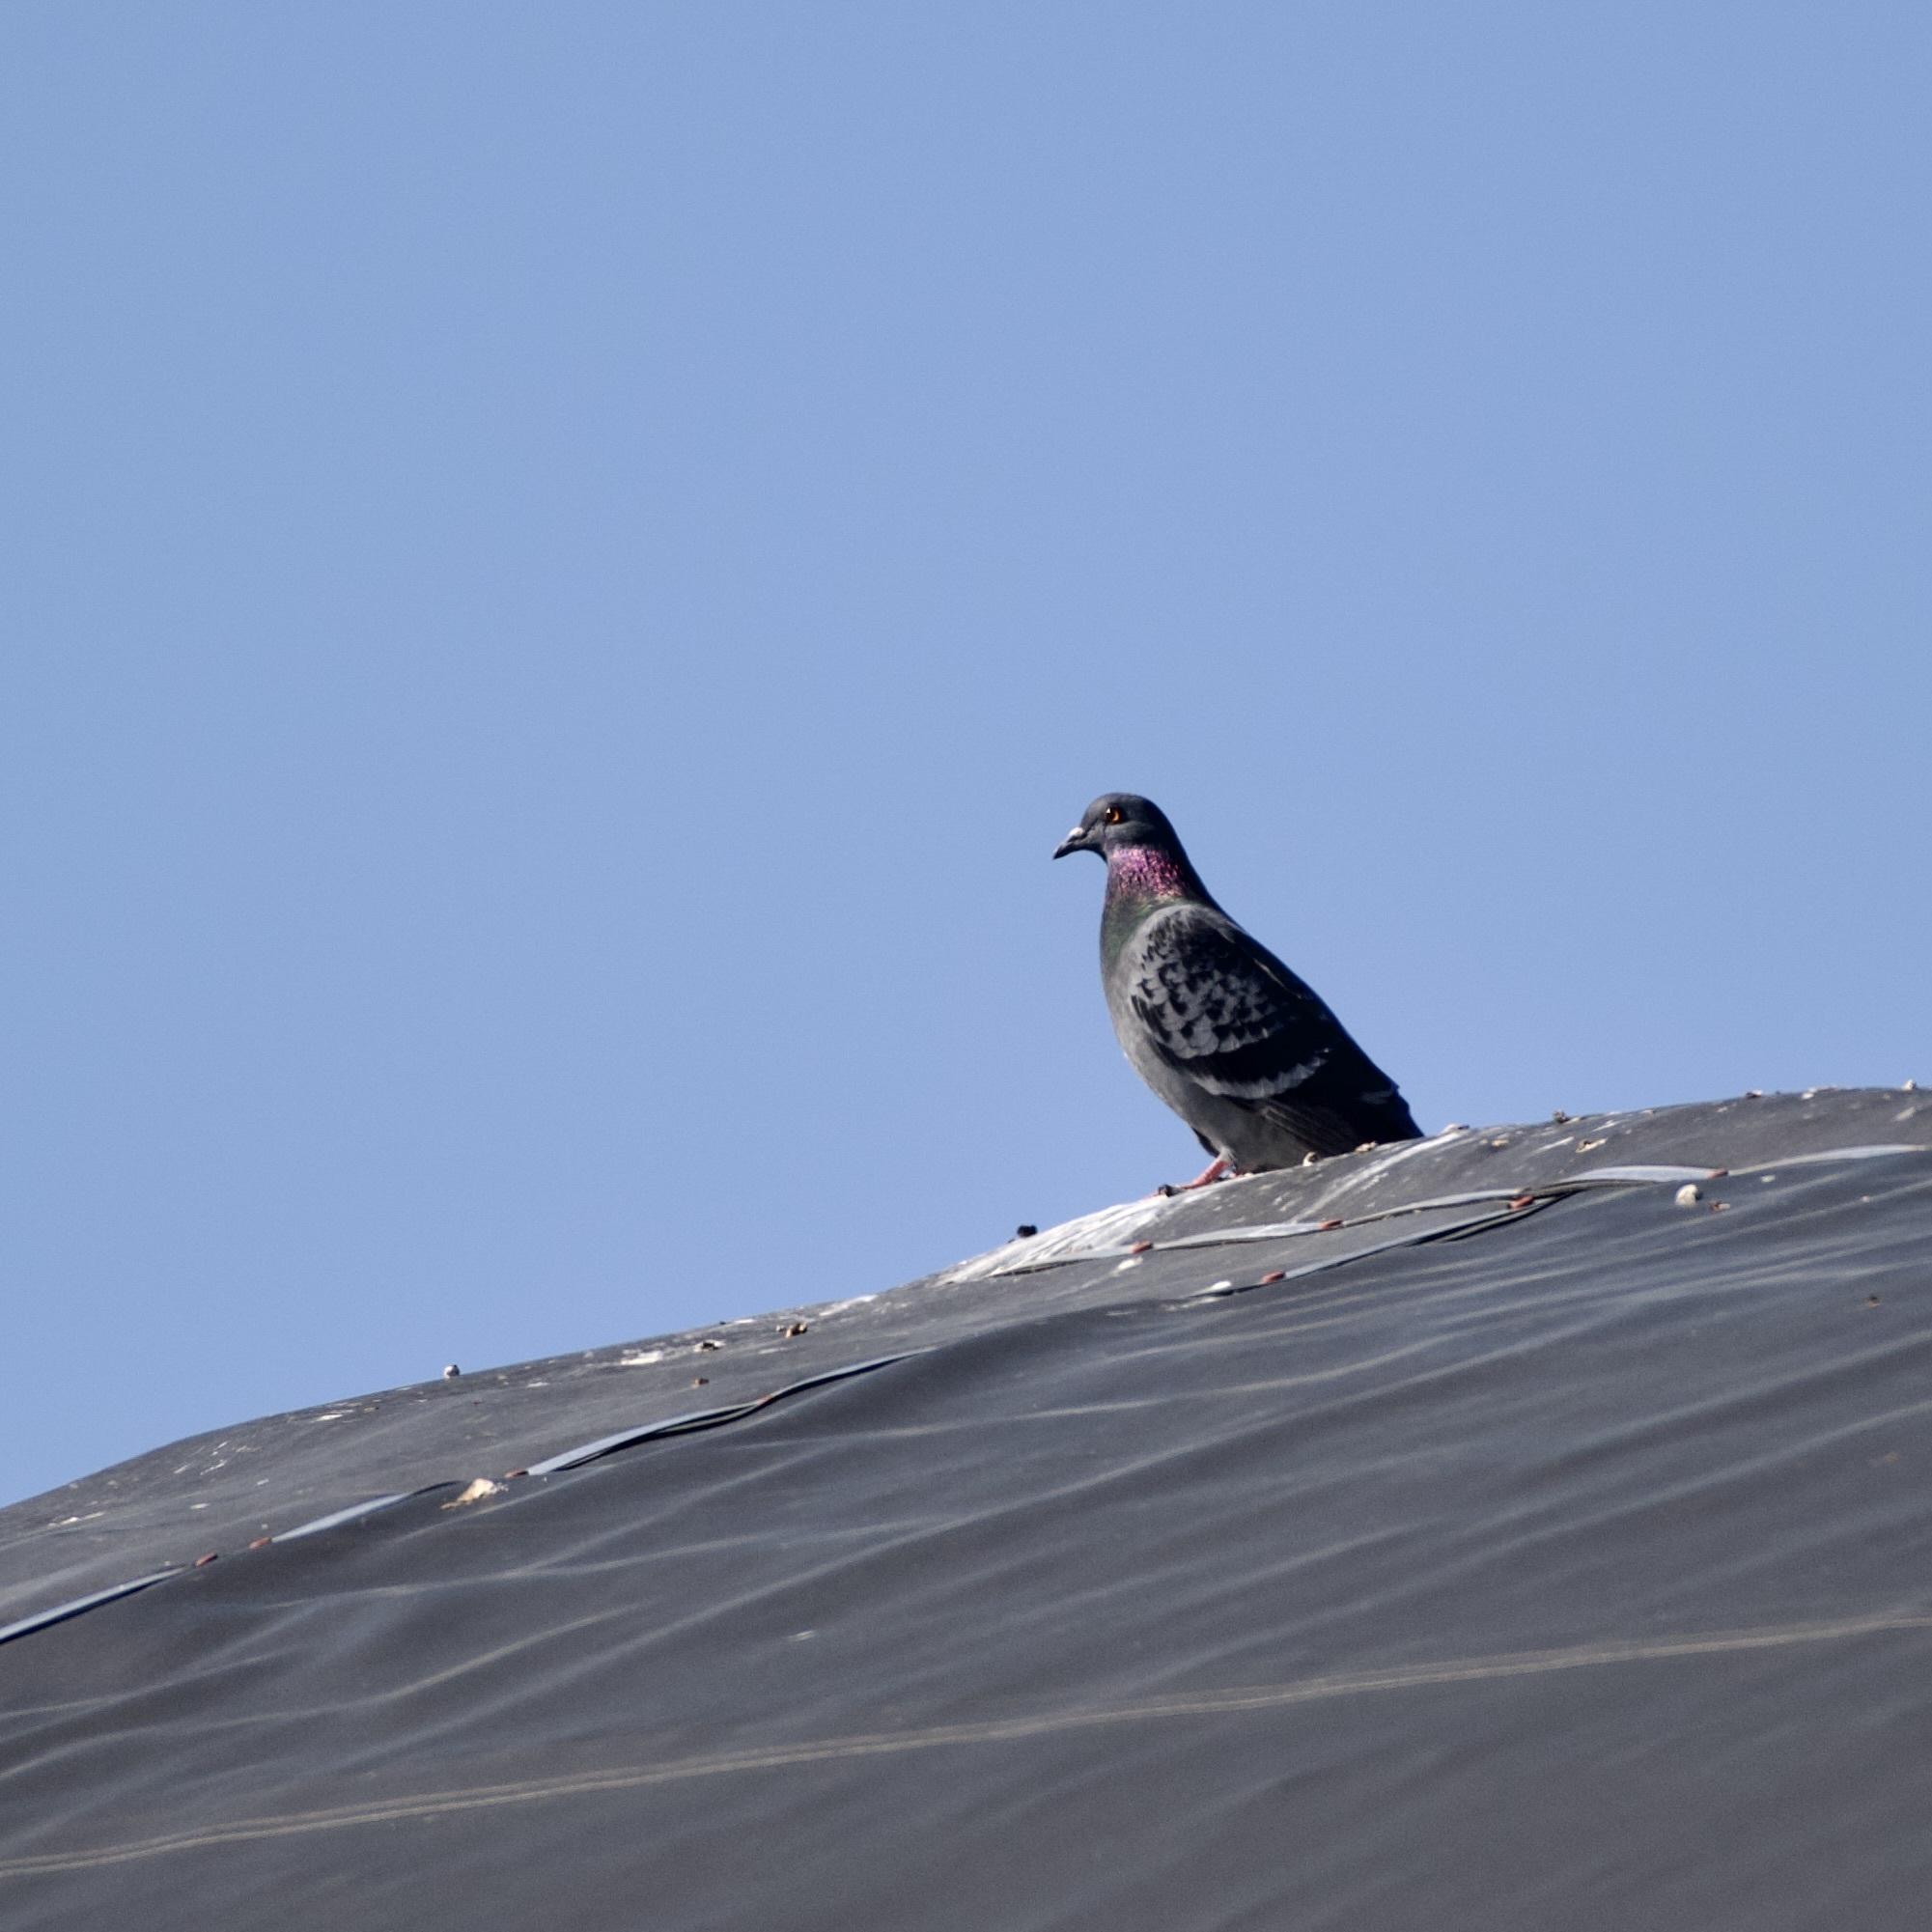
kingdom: Animalia
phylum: Chordata
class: Aves
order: Columbiformes
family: Columbidae
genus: Columba
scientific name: Columba livia
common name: Rock pigeon
